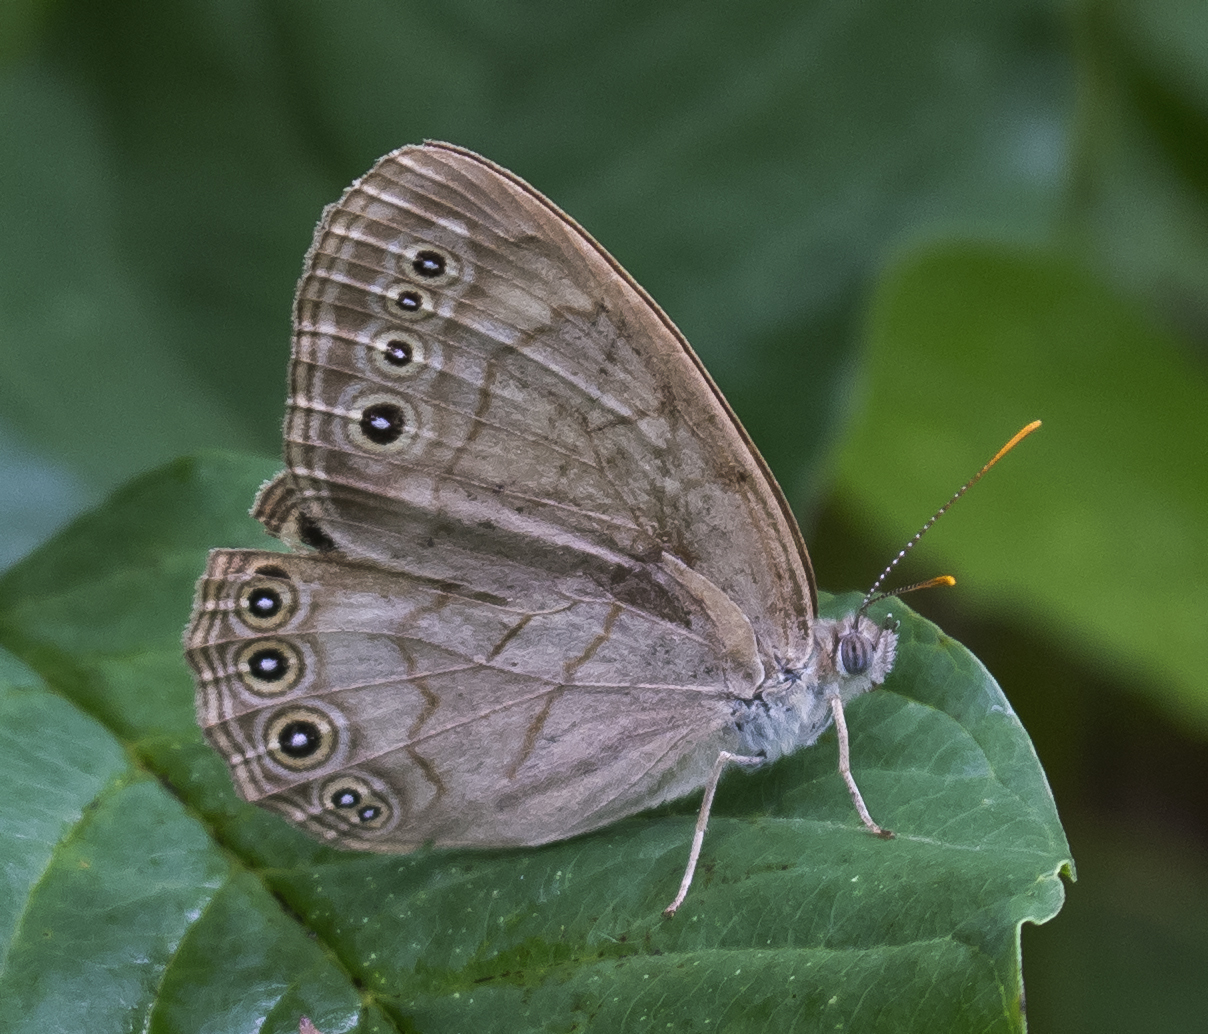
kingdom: Animalia
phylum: Arthropoda
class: Insecta
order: Lepidoptera
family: Nymphalidae
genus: Lethe
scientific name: Lethe eurydice
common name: Eyed brown
